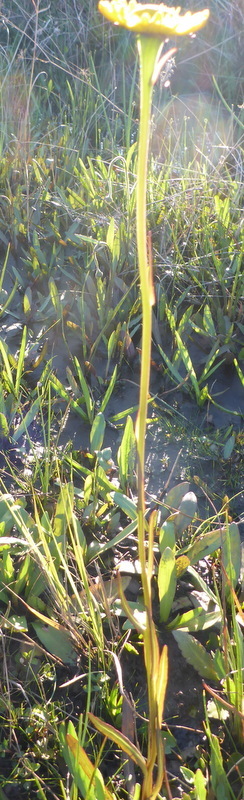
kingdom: Plantae
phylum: Tracheophyta
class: Magnoliopsida
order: Asterales
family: Asteraceae
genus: Helenium
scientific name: Helenium vernale
